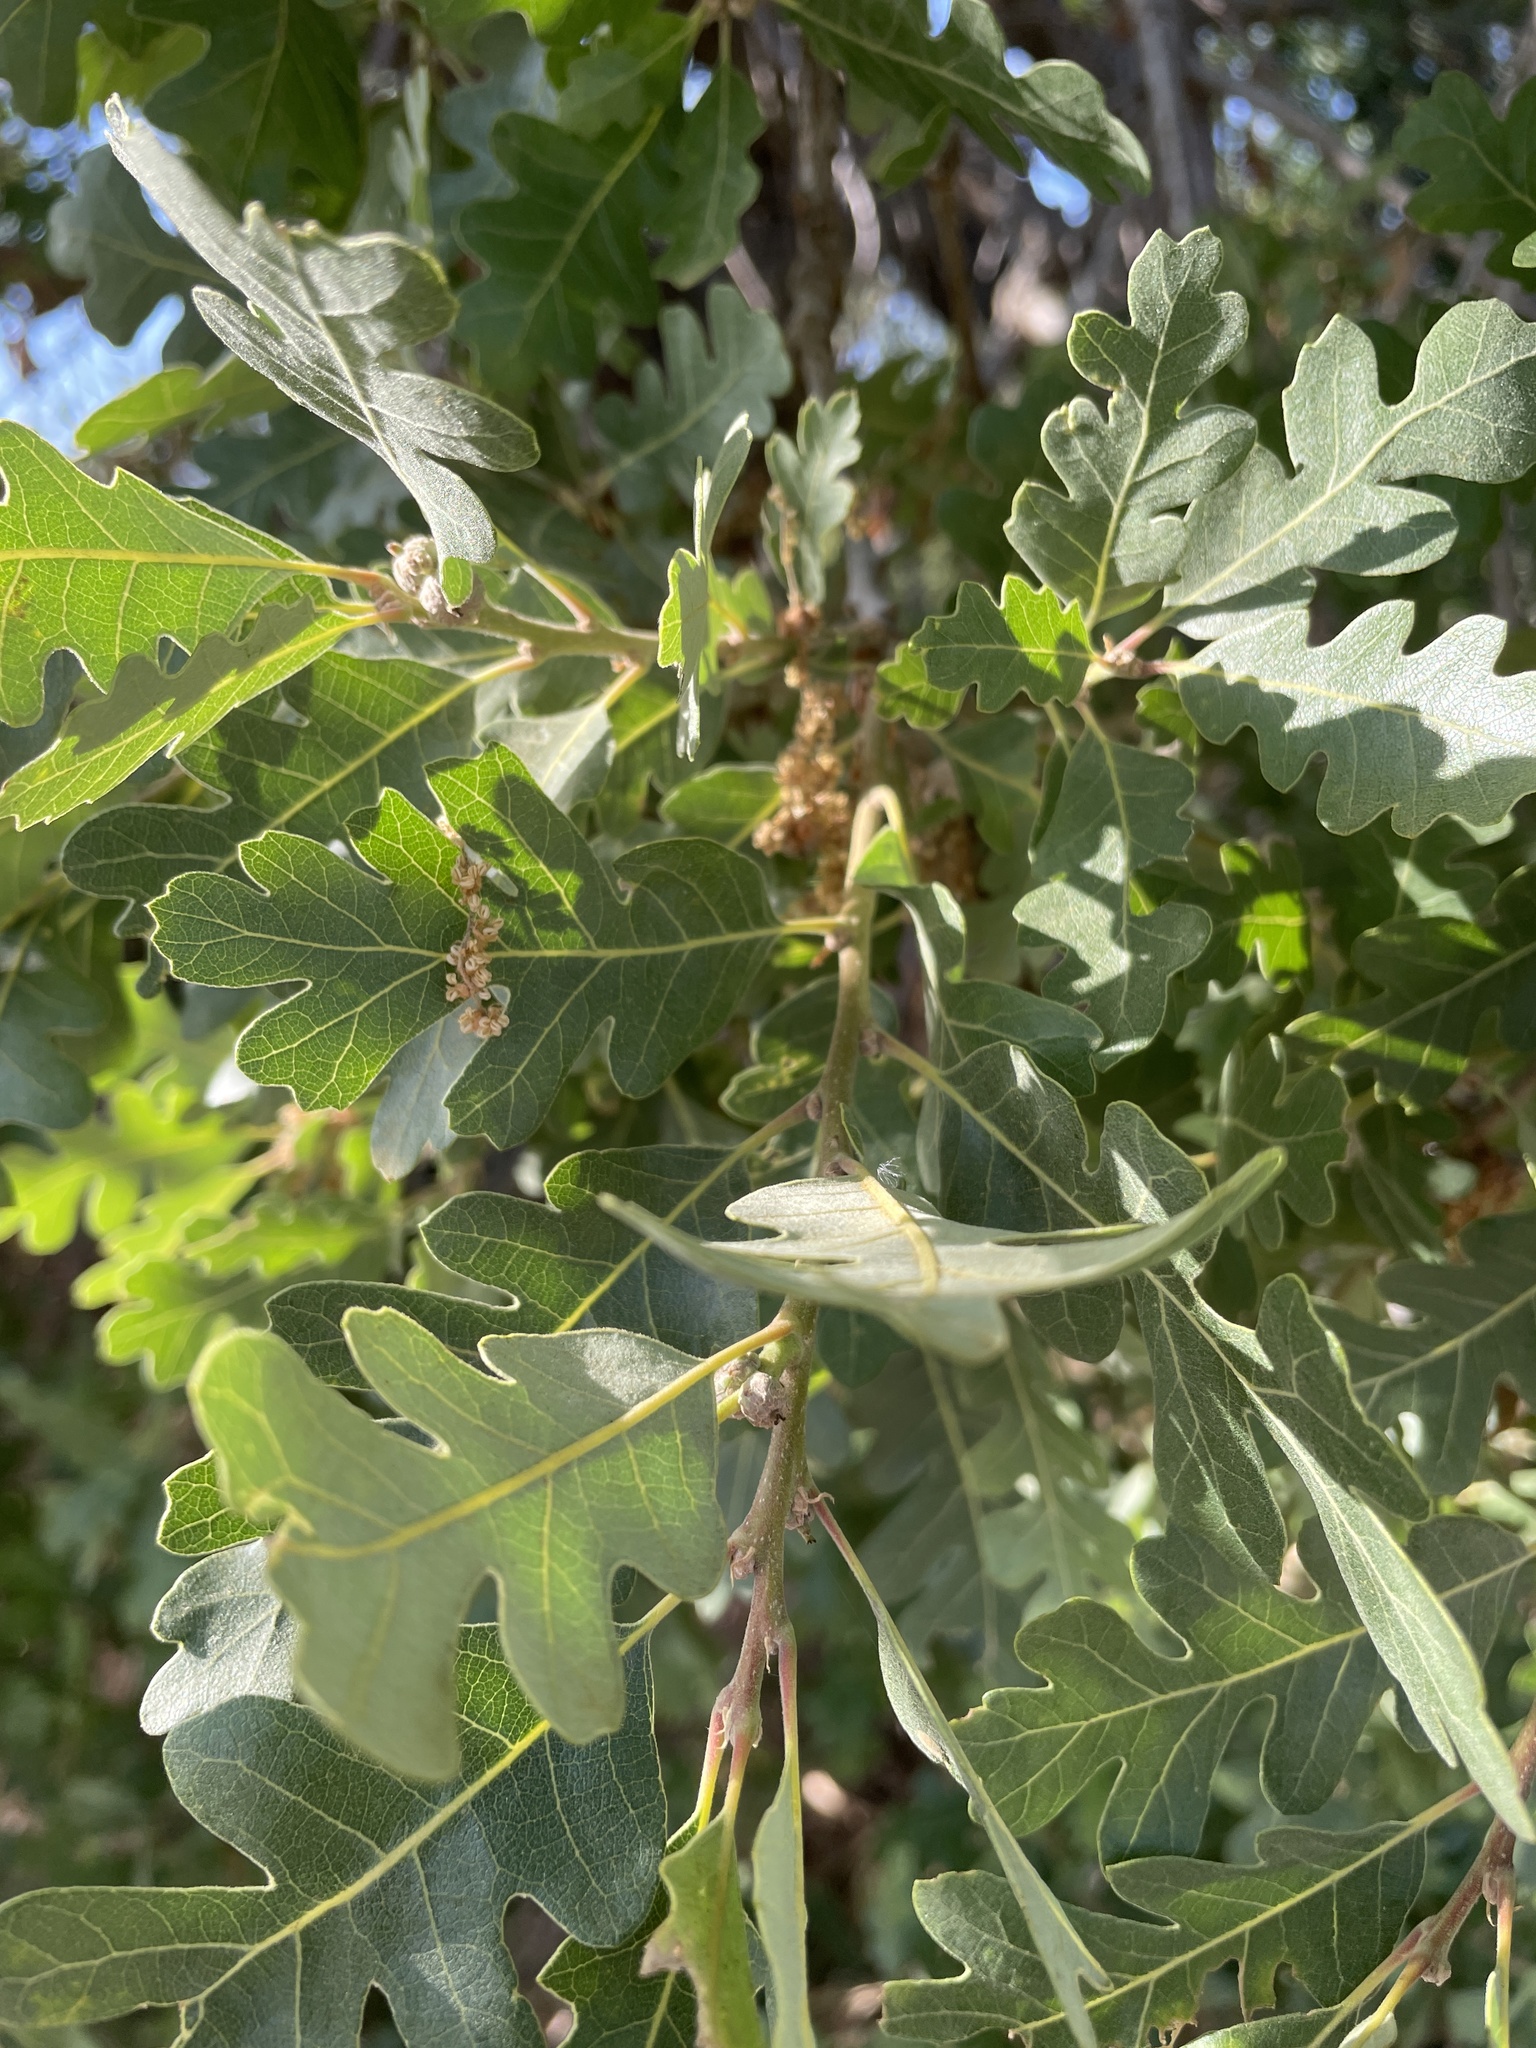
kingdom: Plantae
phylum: Tracheophyta
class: Magnoliopsida
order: Fagales
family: Fagaceae
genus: Quercus
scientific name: Quercus lobata
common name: Valley oak
